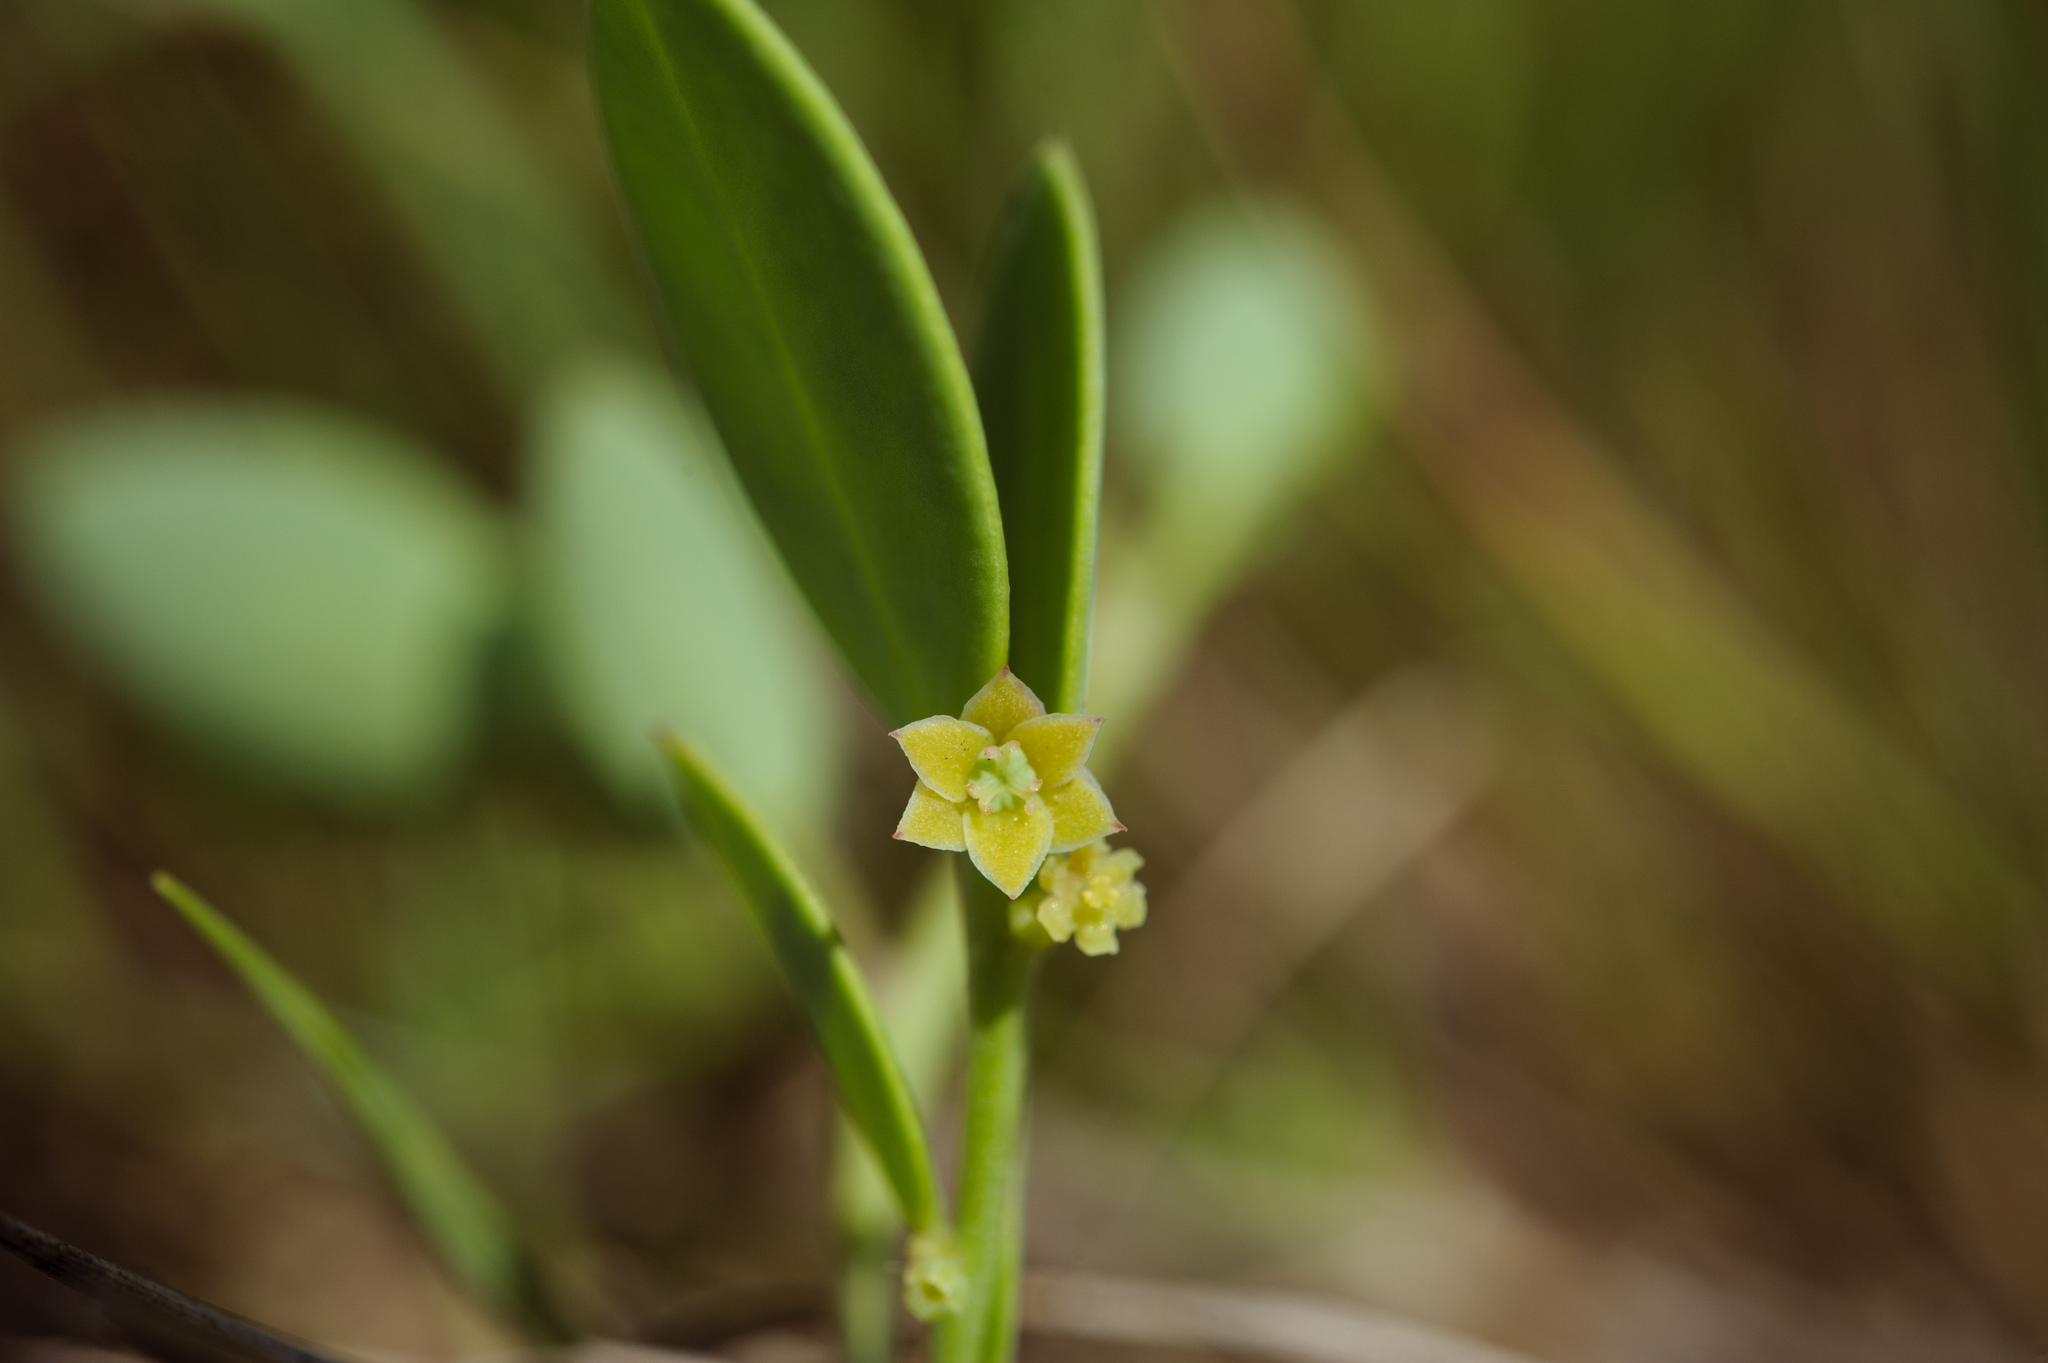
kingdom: Plantae
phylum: Tracheophyta
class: Magnoliopsida
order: Malpighiales
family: Phyllanthaceae
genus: Synostemon
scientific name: Synostemon bacciformis
